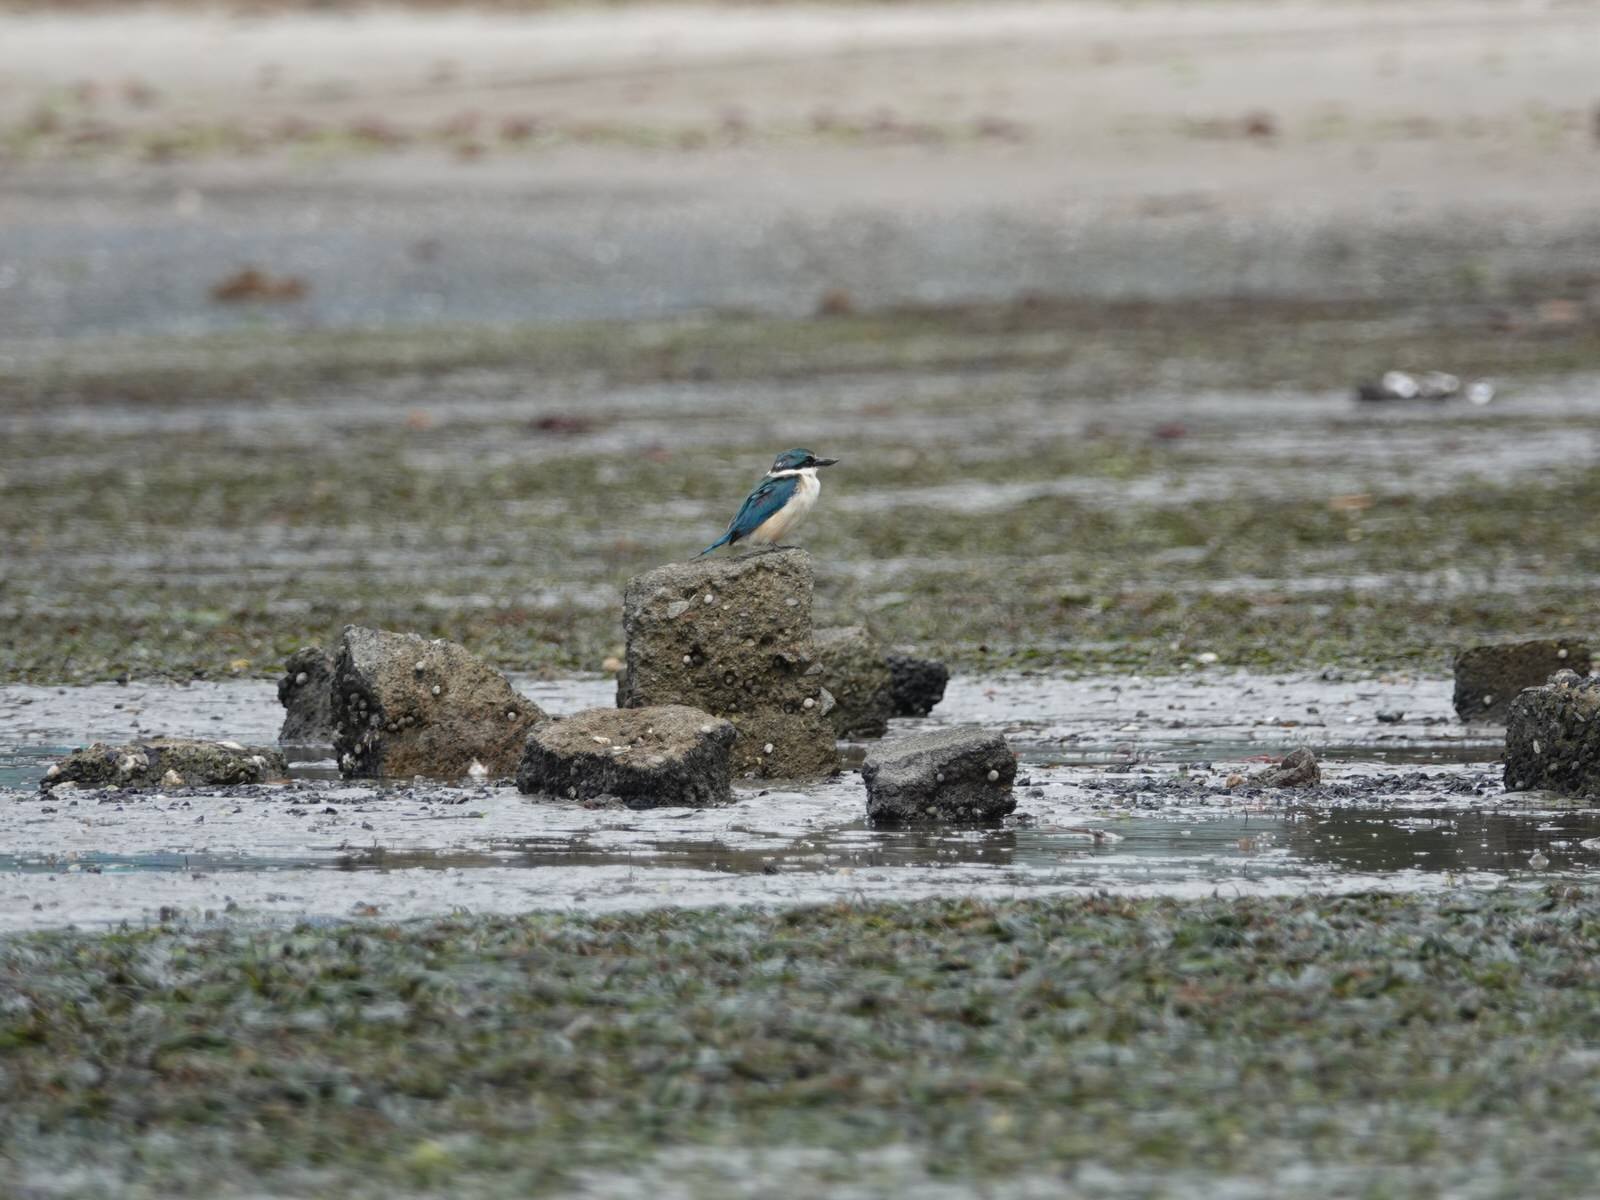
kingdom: Animalia
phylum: Chordata
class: Aves
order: Coraciiformes
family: Alcedinidae
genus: Todiramphus
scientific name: Todiramphus sanctus
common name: Sacred kingfisher
